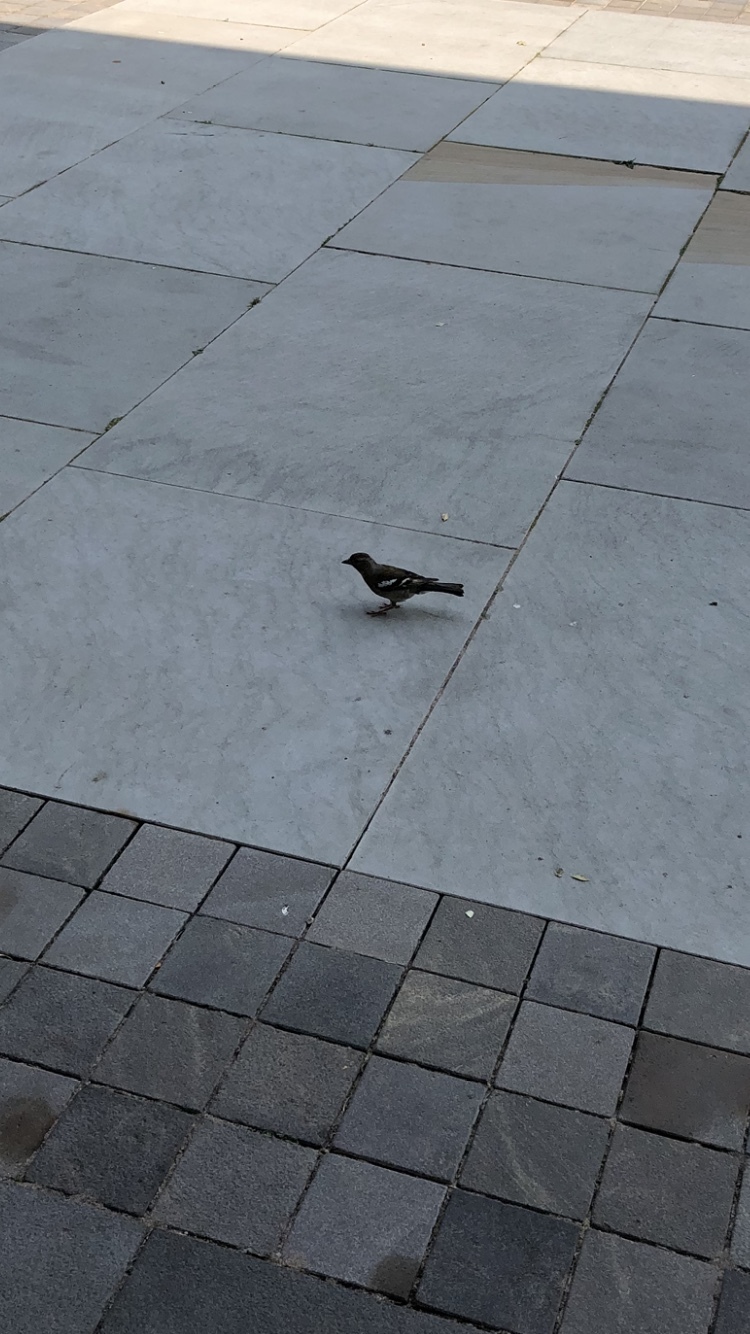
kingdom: Animalia
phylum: Chordata
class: Aves
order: Passeriformes
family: Fringillidae
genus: Fringilla
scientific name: Fringilla coelebs
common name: Common chaffinch
